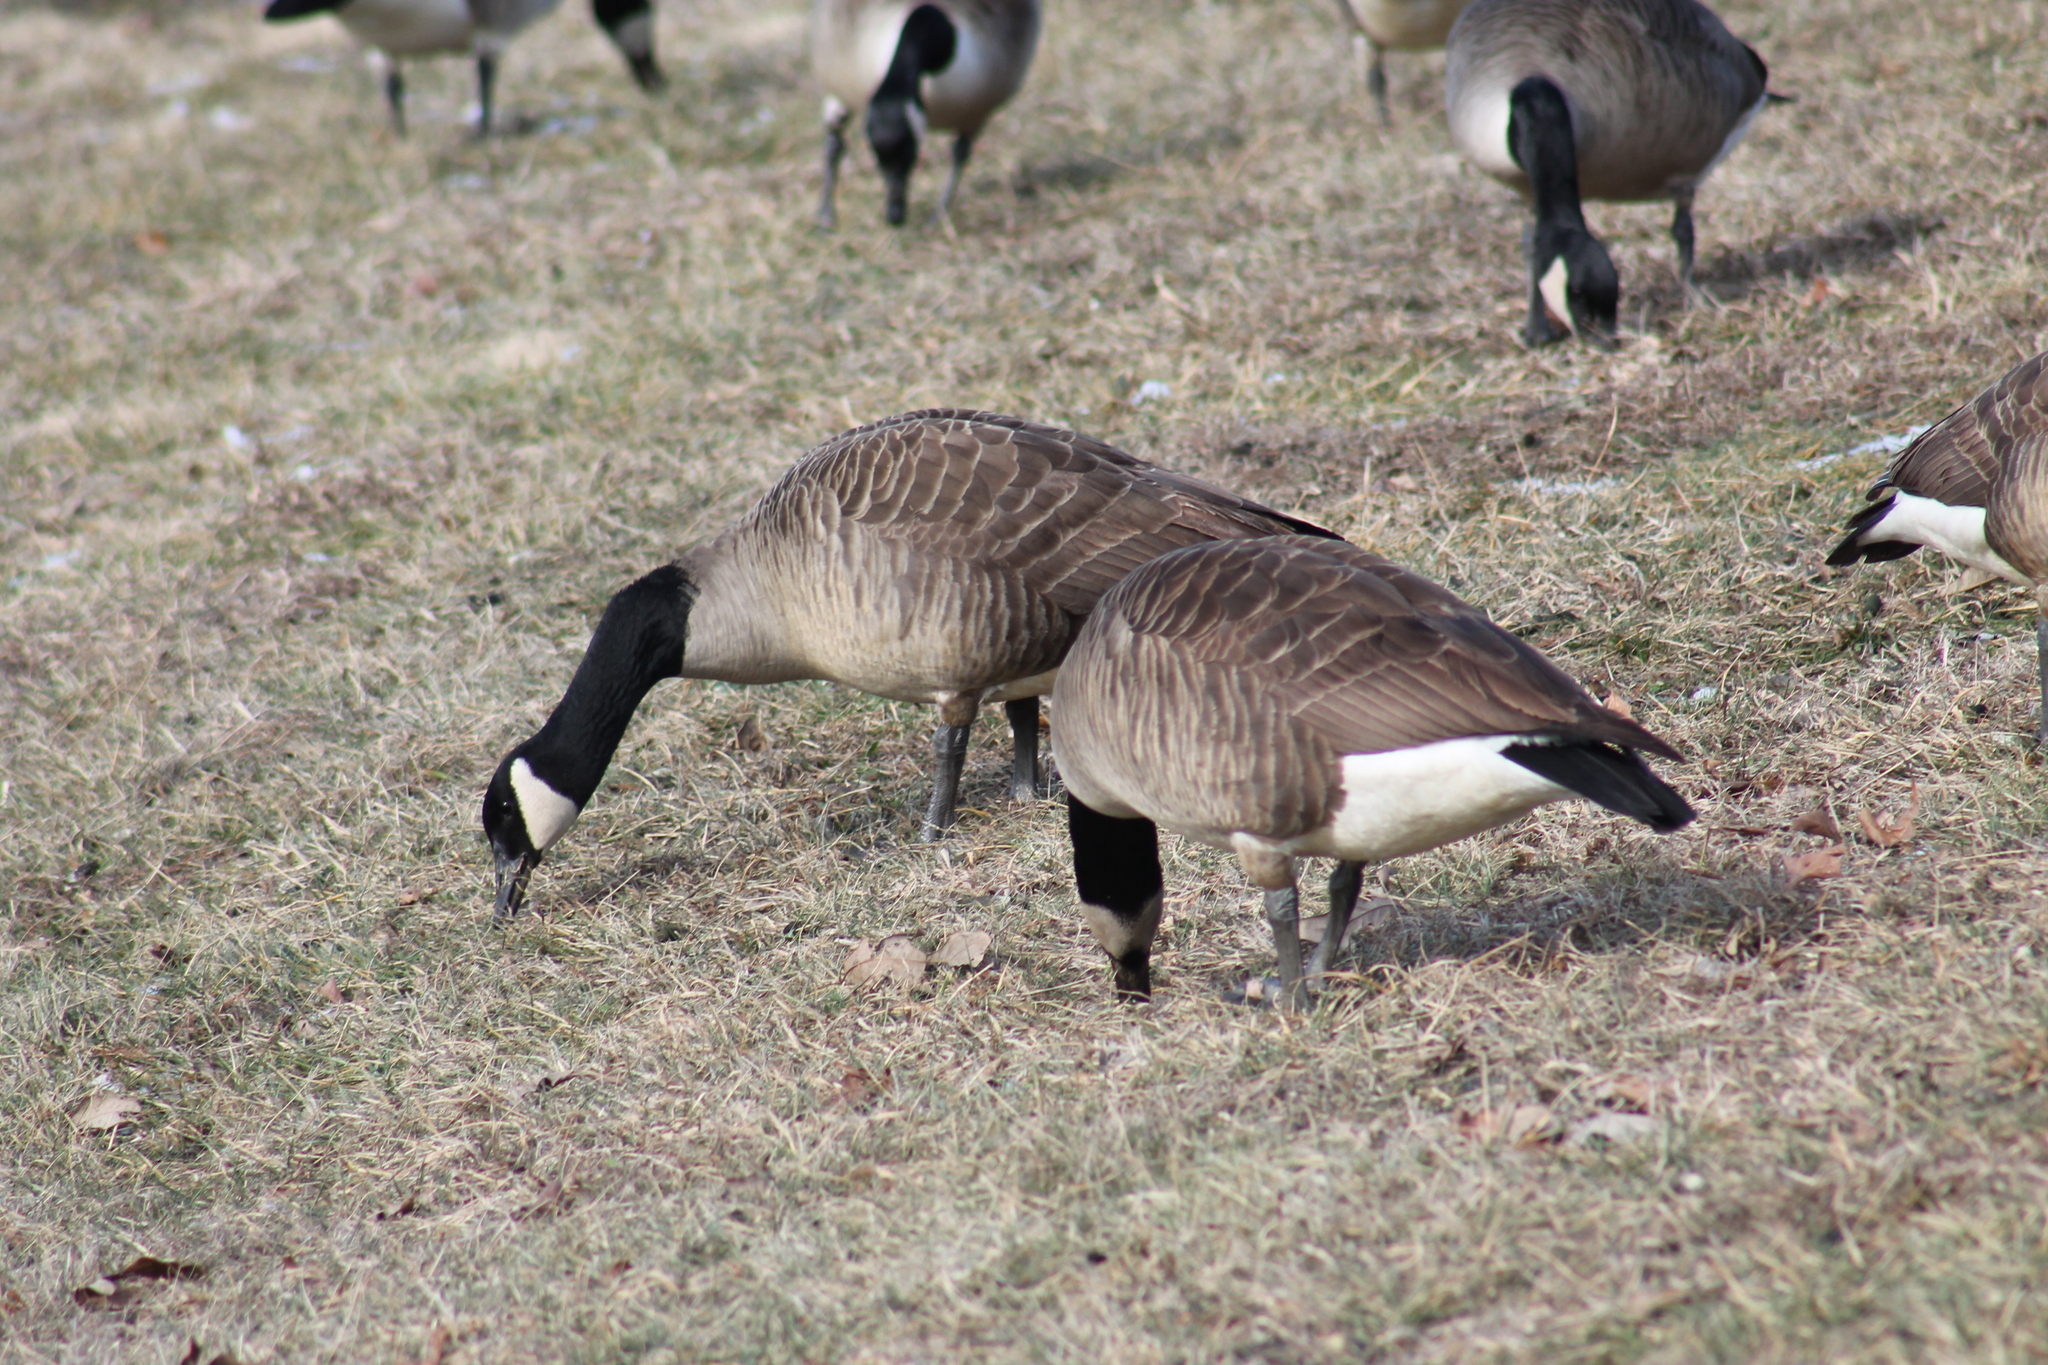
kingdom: Animalia
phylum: Chordata
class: Aves
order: Anseriformes
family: Anatidae
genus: Branta
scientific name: Branta canadensis
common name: Canada goose
